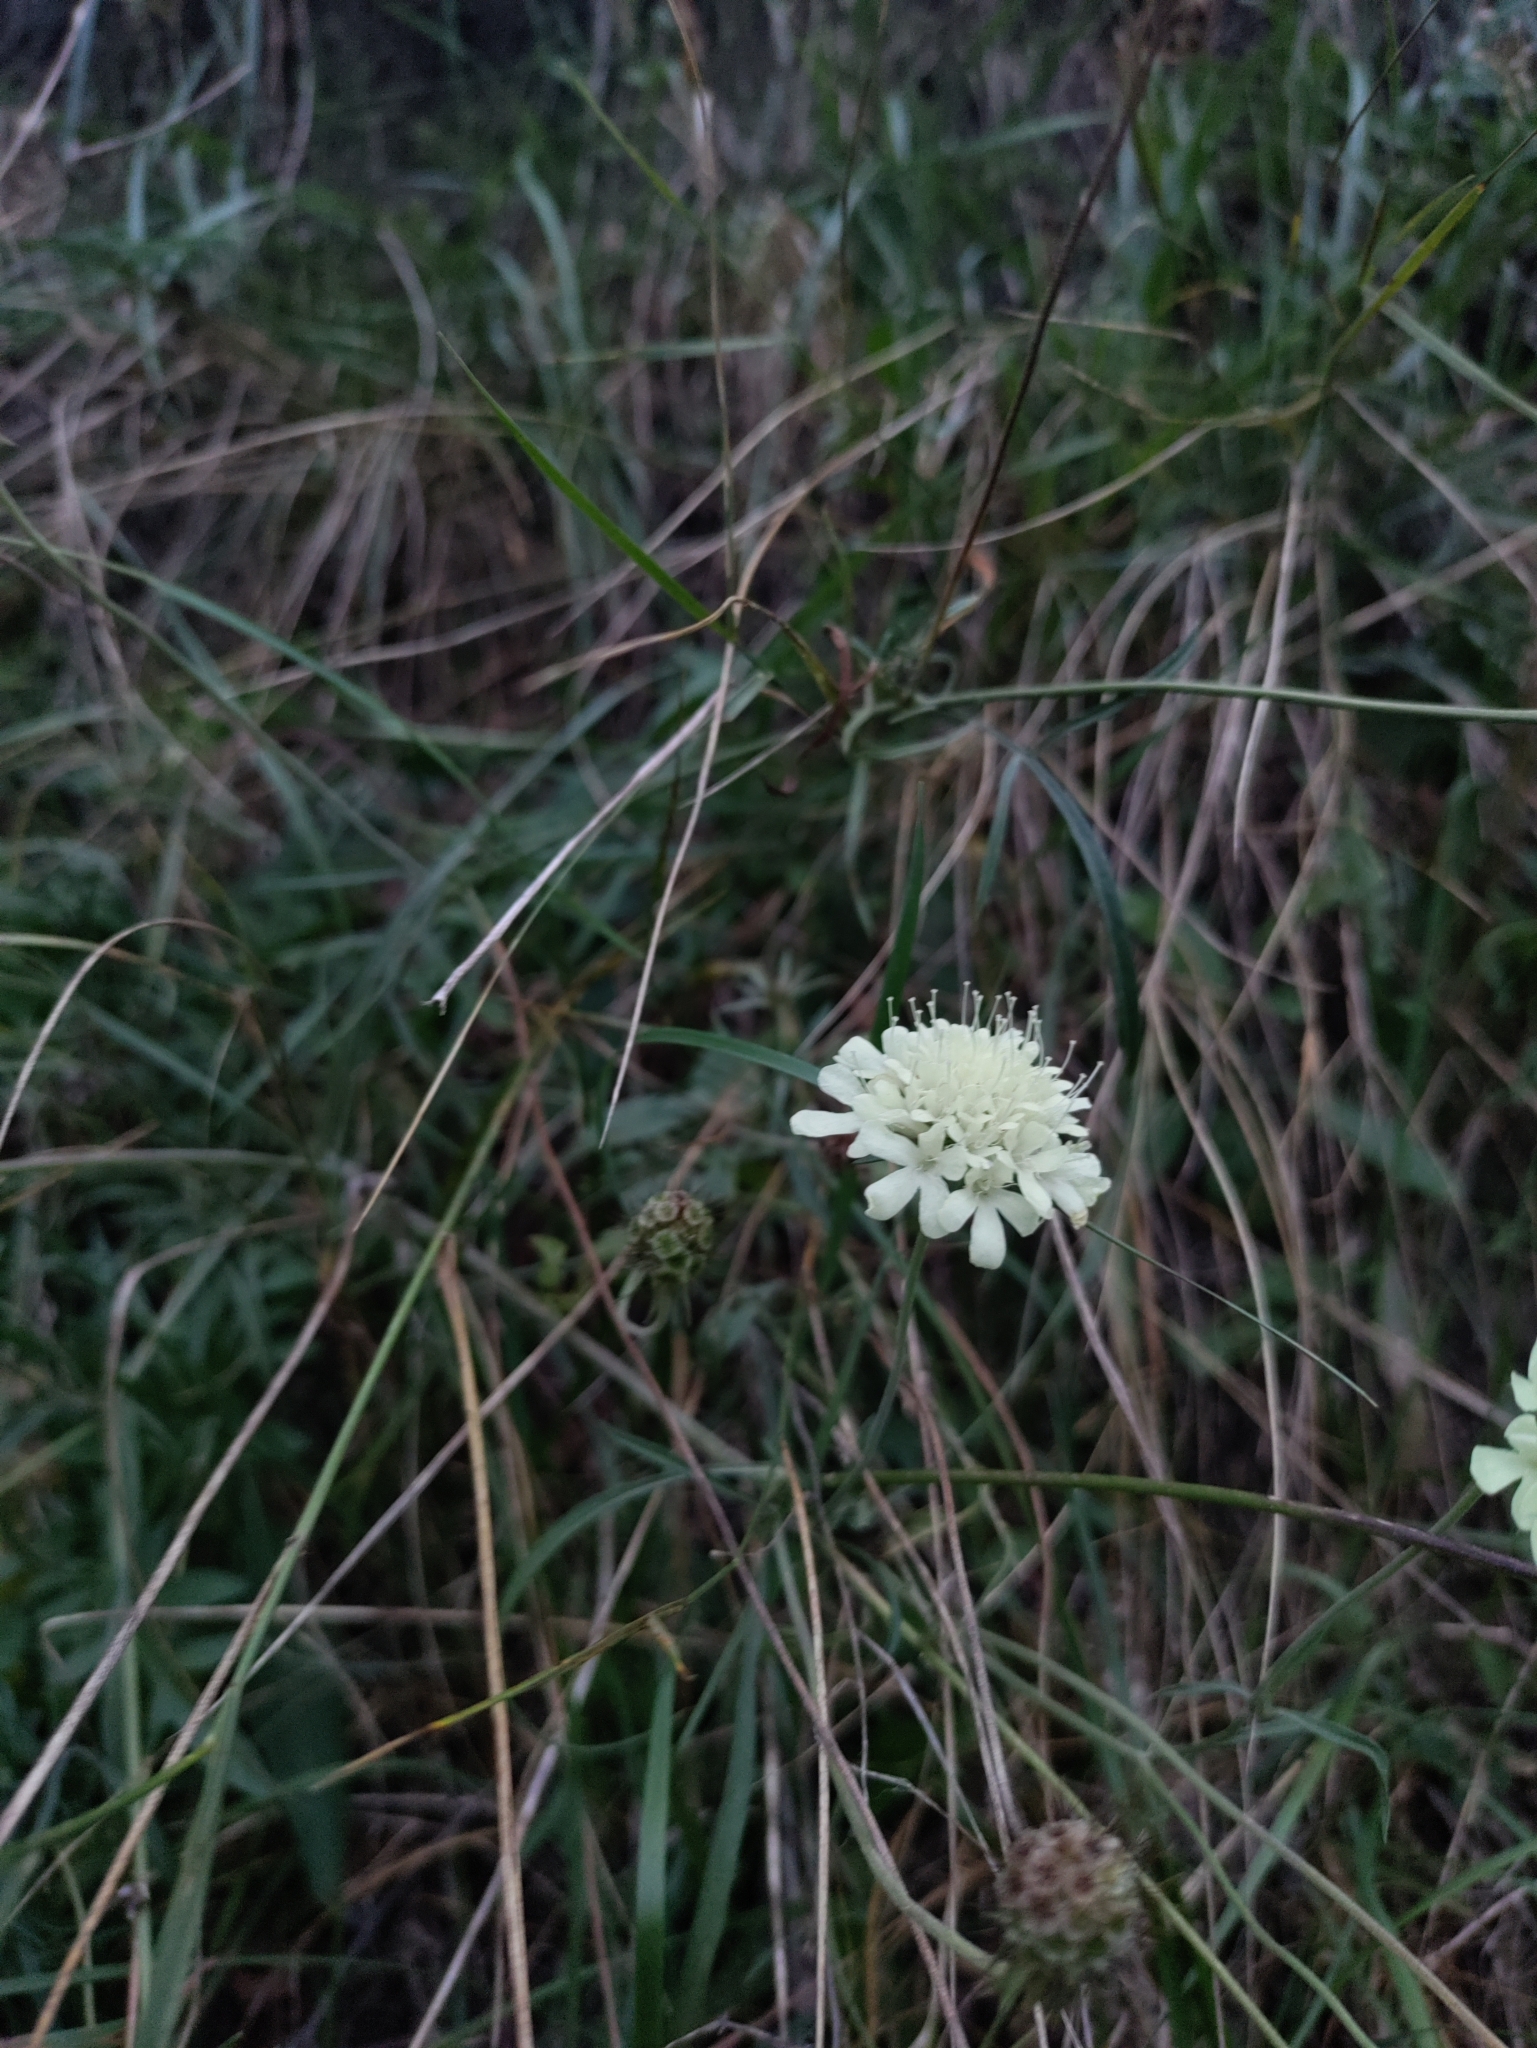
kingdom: Plantae
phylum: Tracheophyta
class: Magnoliopsida
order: Dipsacales
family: Caprifoliaceae
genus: Scabiosa
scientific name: Scabiosa ochroleuca
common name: Cream pincushions
